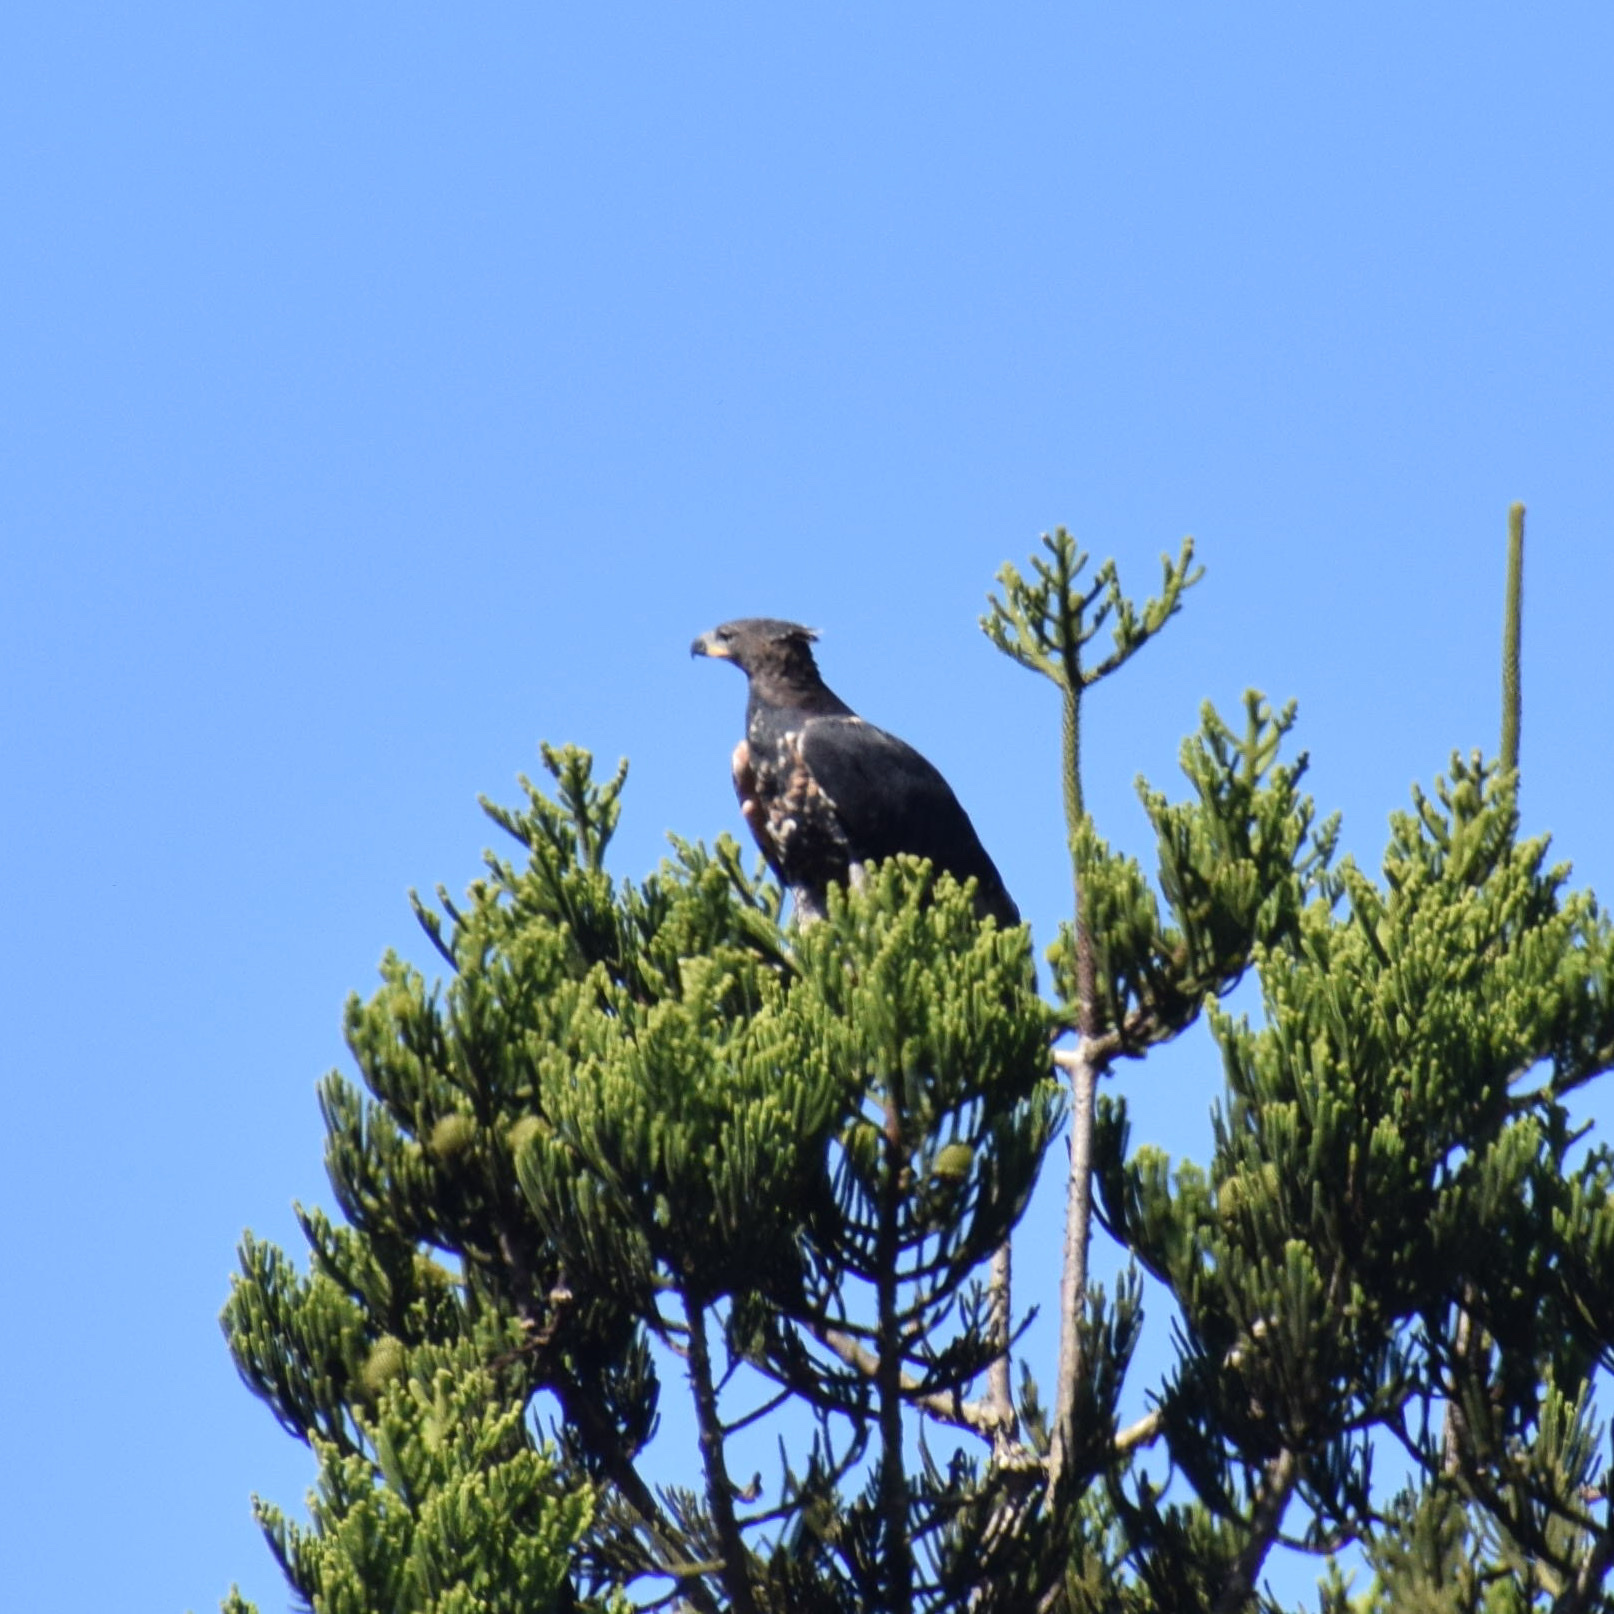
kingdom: Animalia
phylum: Chordata
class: Aves
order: Accipitriformes
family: Accipitridae
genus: Stephanoaetus
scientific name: Stephanoaetus coronatus
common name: Crowned eagle
